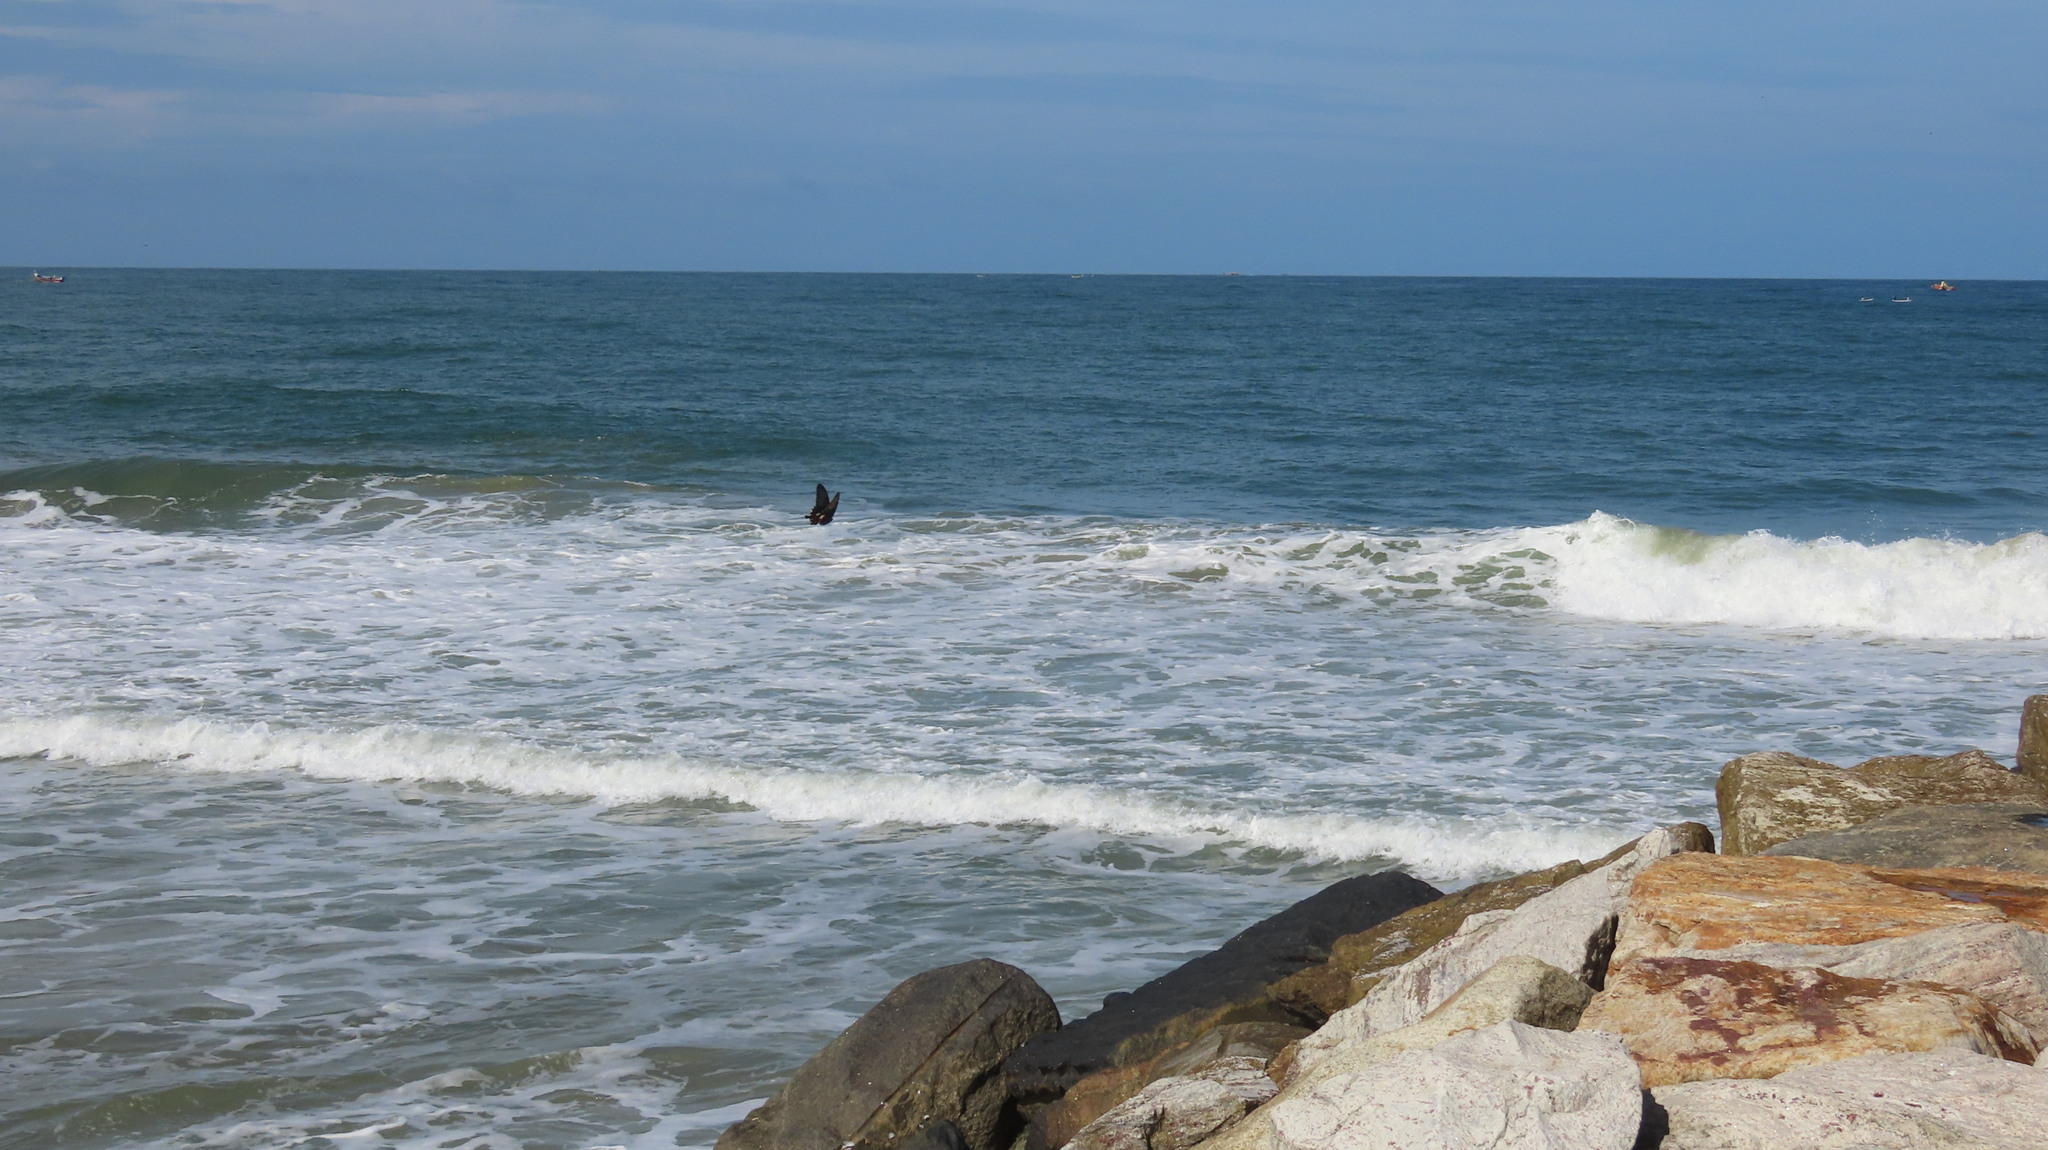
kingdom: Animalia
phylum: Arthropoda
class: Insecta
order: Lepidoptera
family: Papilionidae
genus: Papilio
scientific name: Papilio polytes
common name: Common mormon
